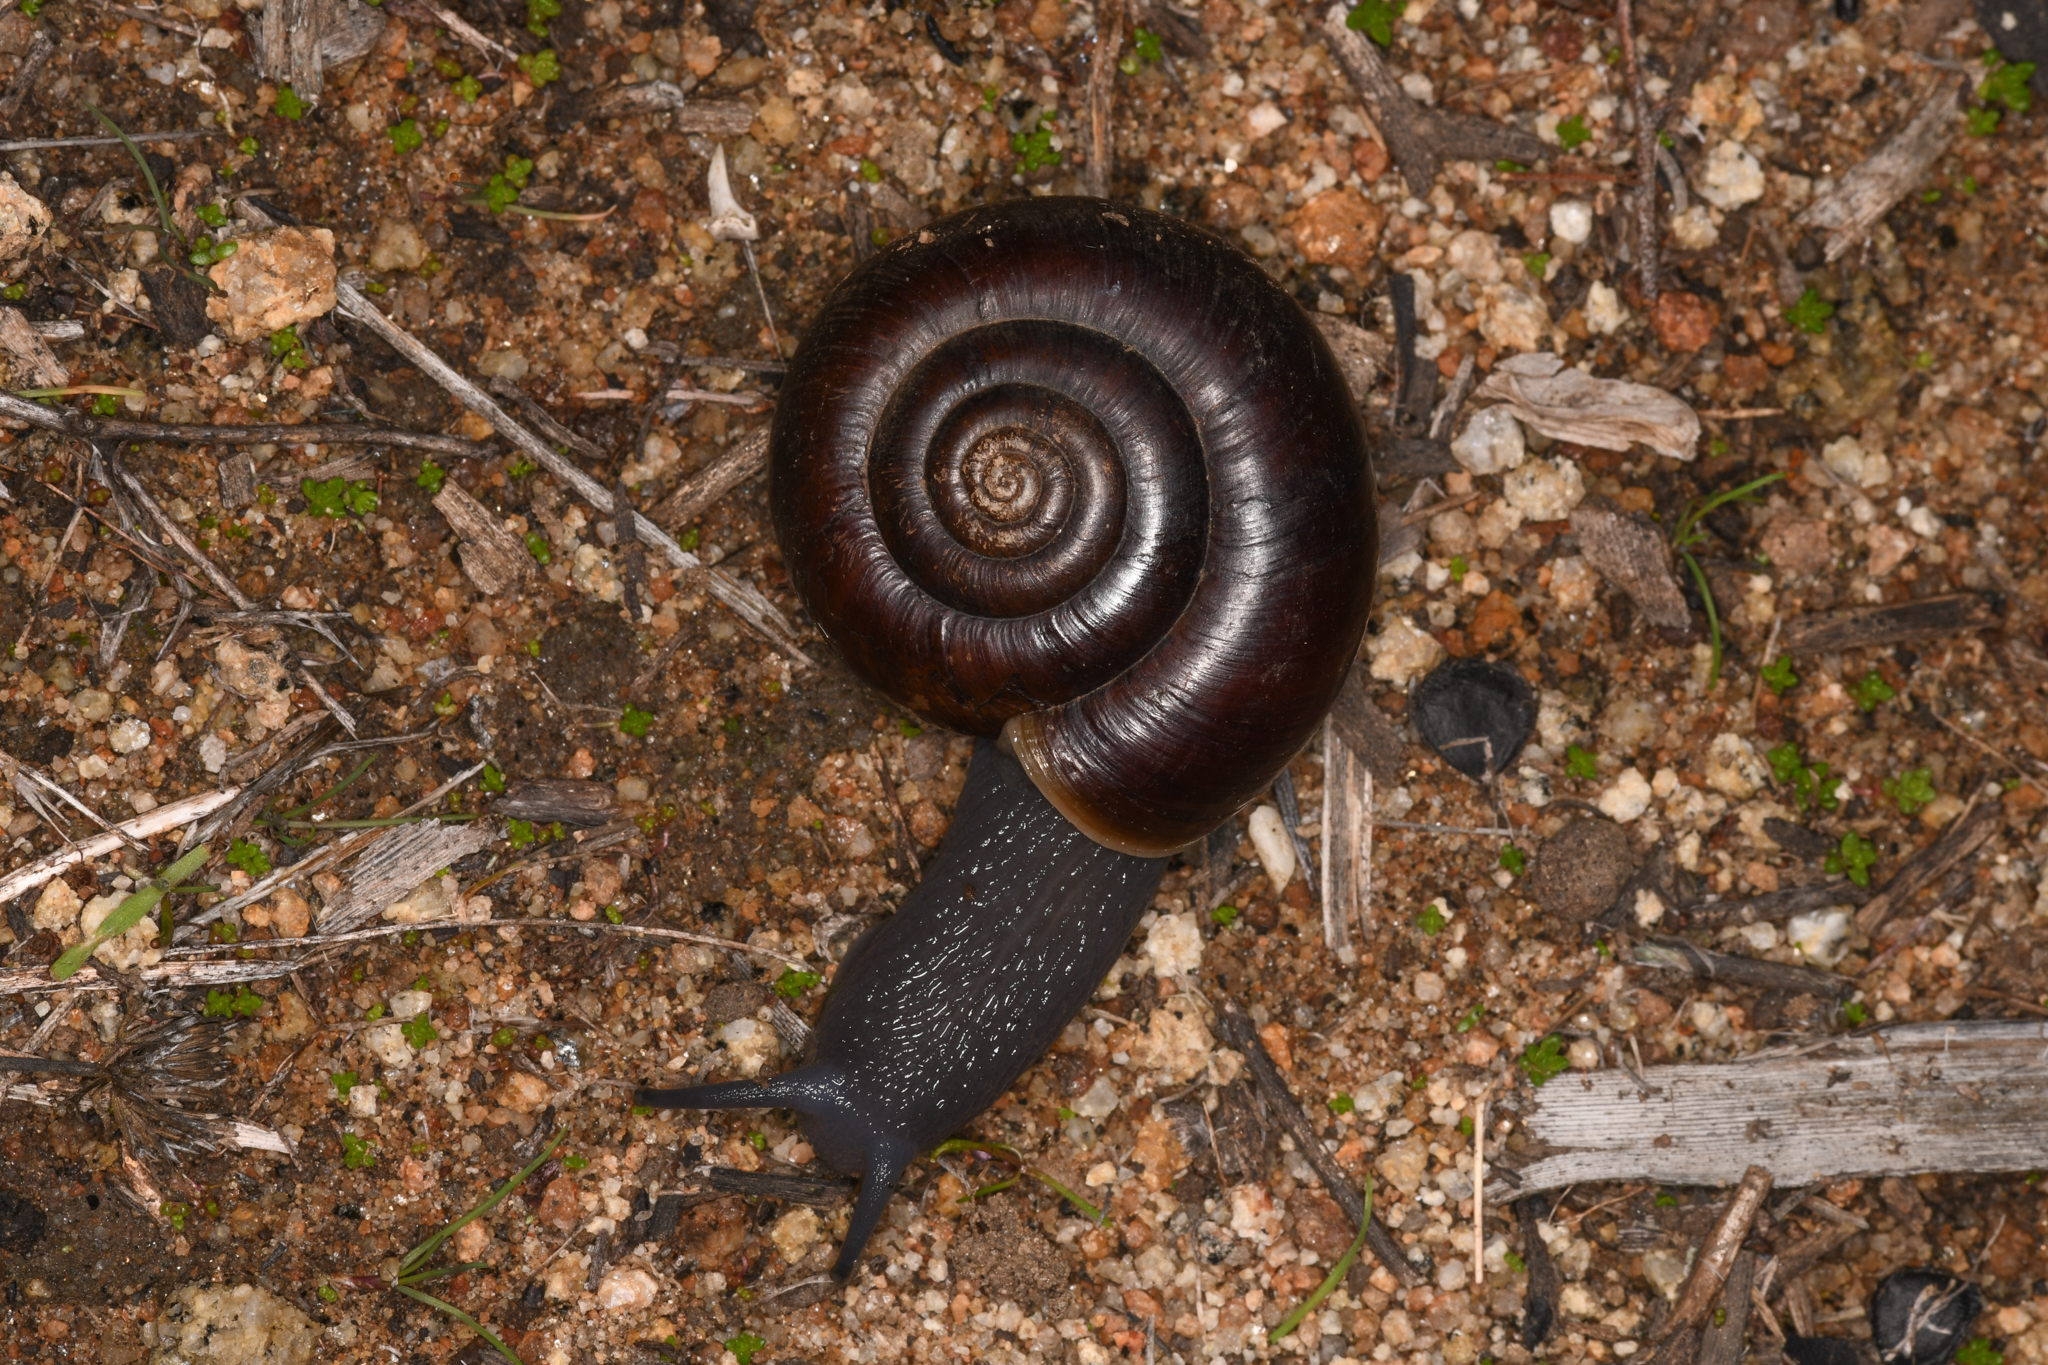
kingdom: Animalia
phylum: Mollusca
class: Gastropoda
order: Stylommatophora
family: Megomphicidae
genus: Glyptostoma
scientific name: Glyptostoma newberryanum
